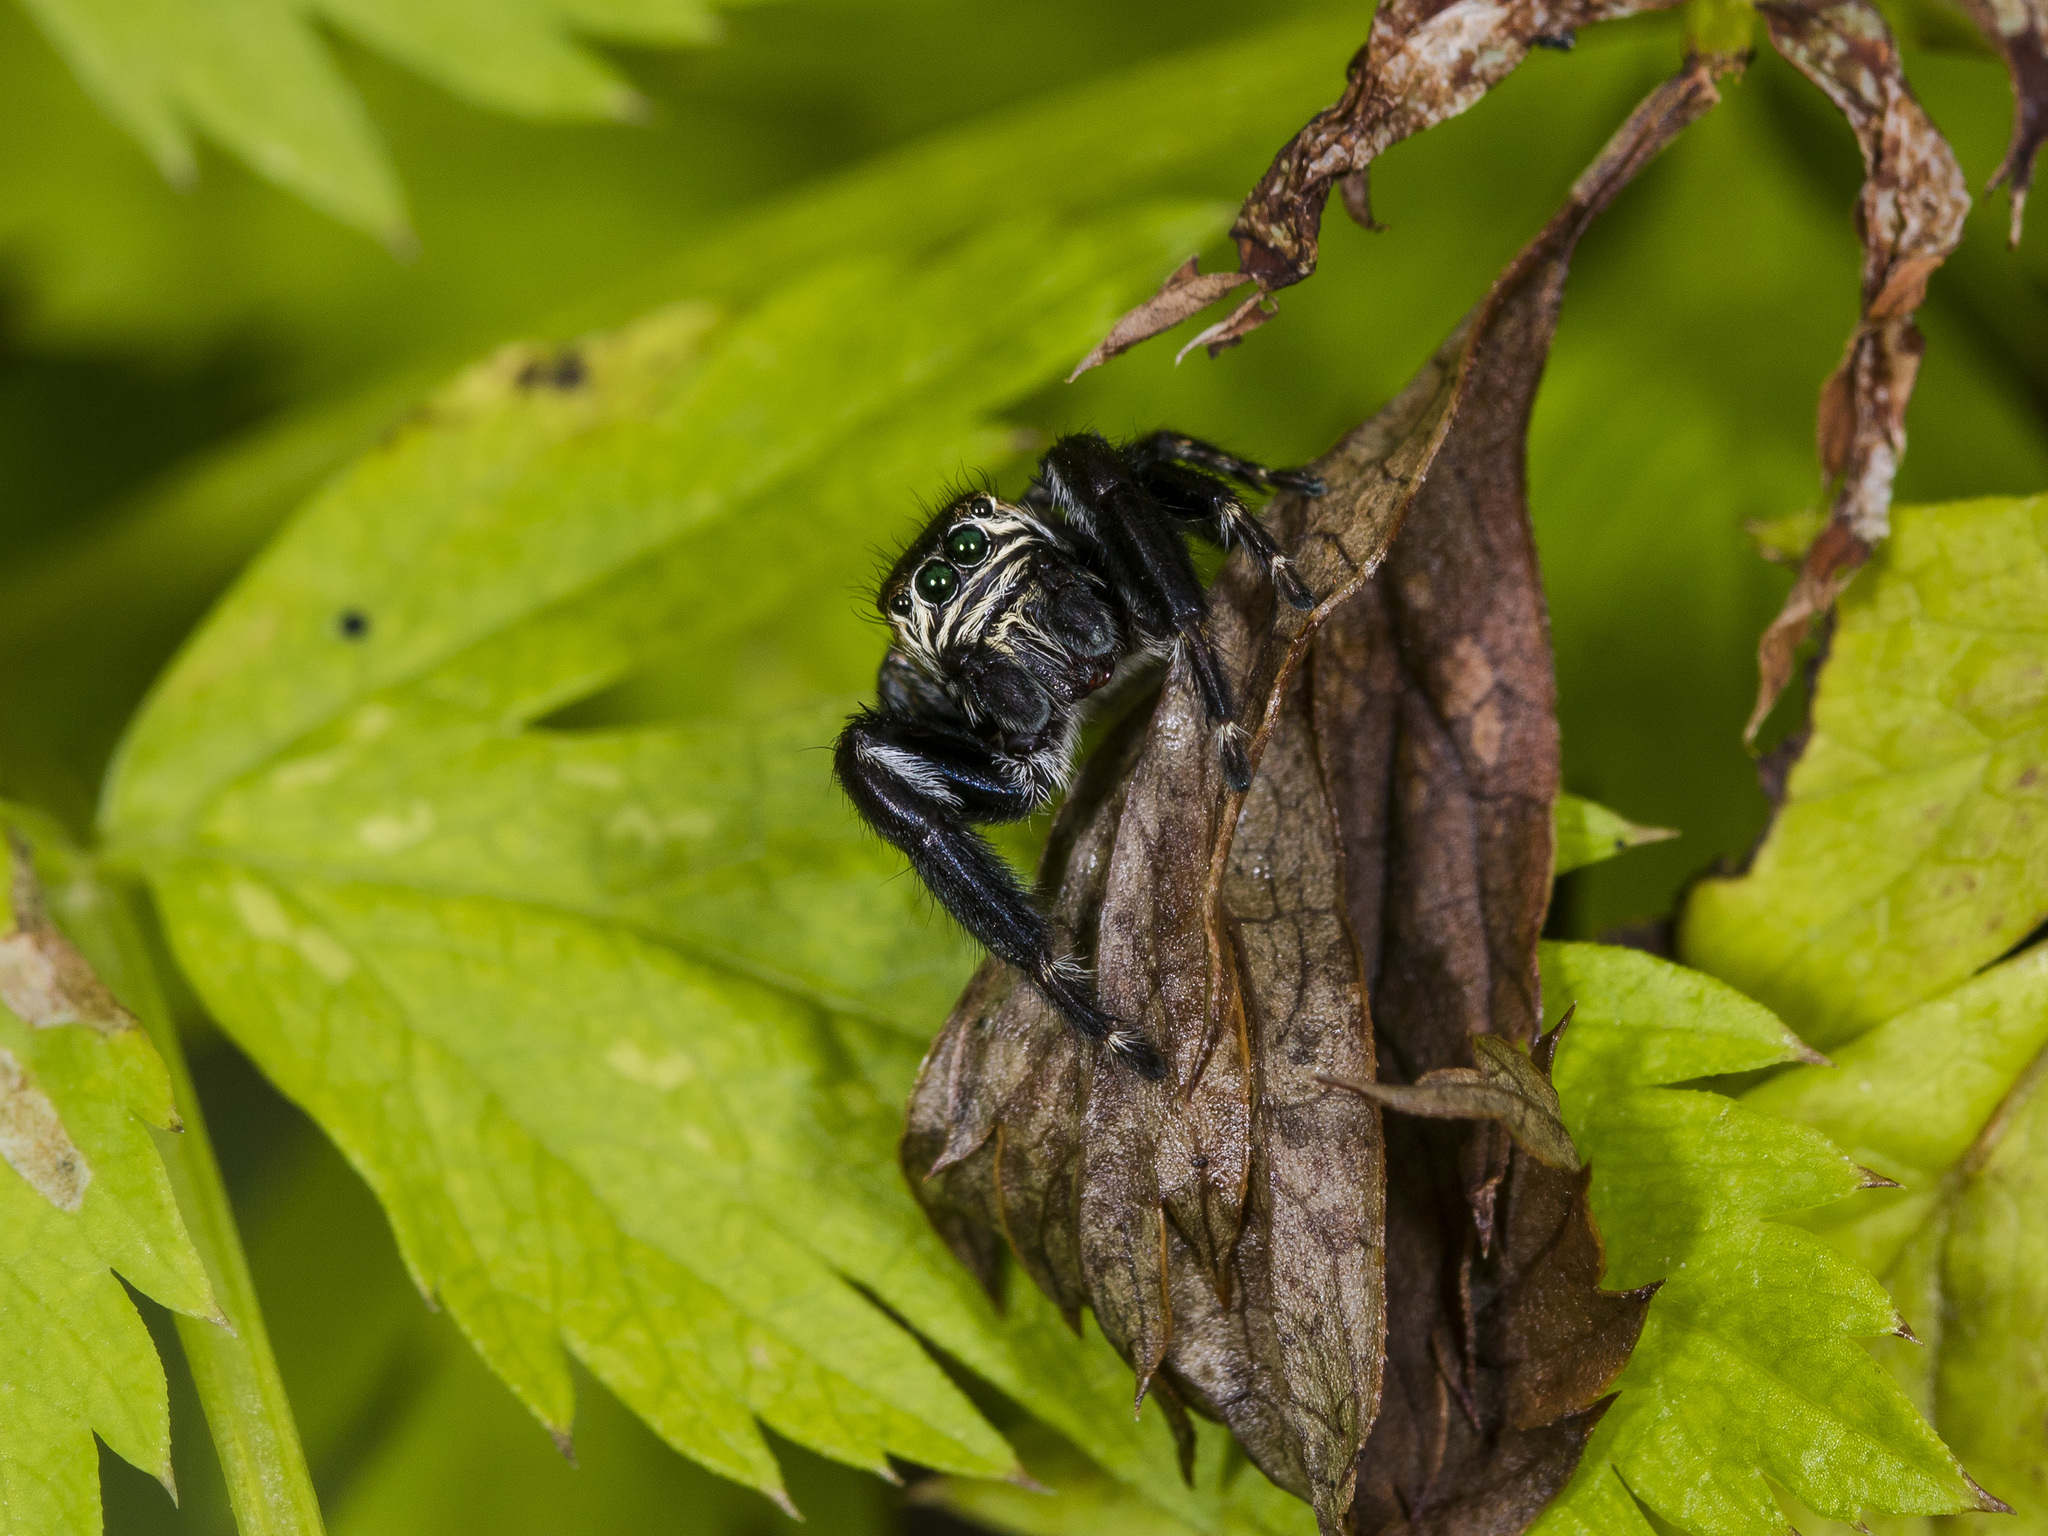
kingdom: Animalia
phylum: Arthropoda
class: Arachnida
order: Araneae
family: Salticidae
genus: Evarcha
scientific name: Evarcha arcuata
